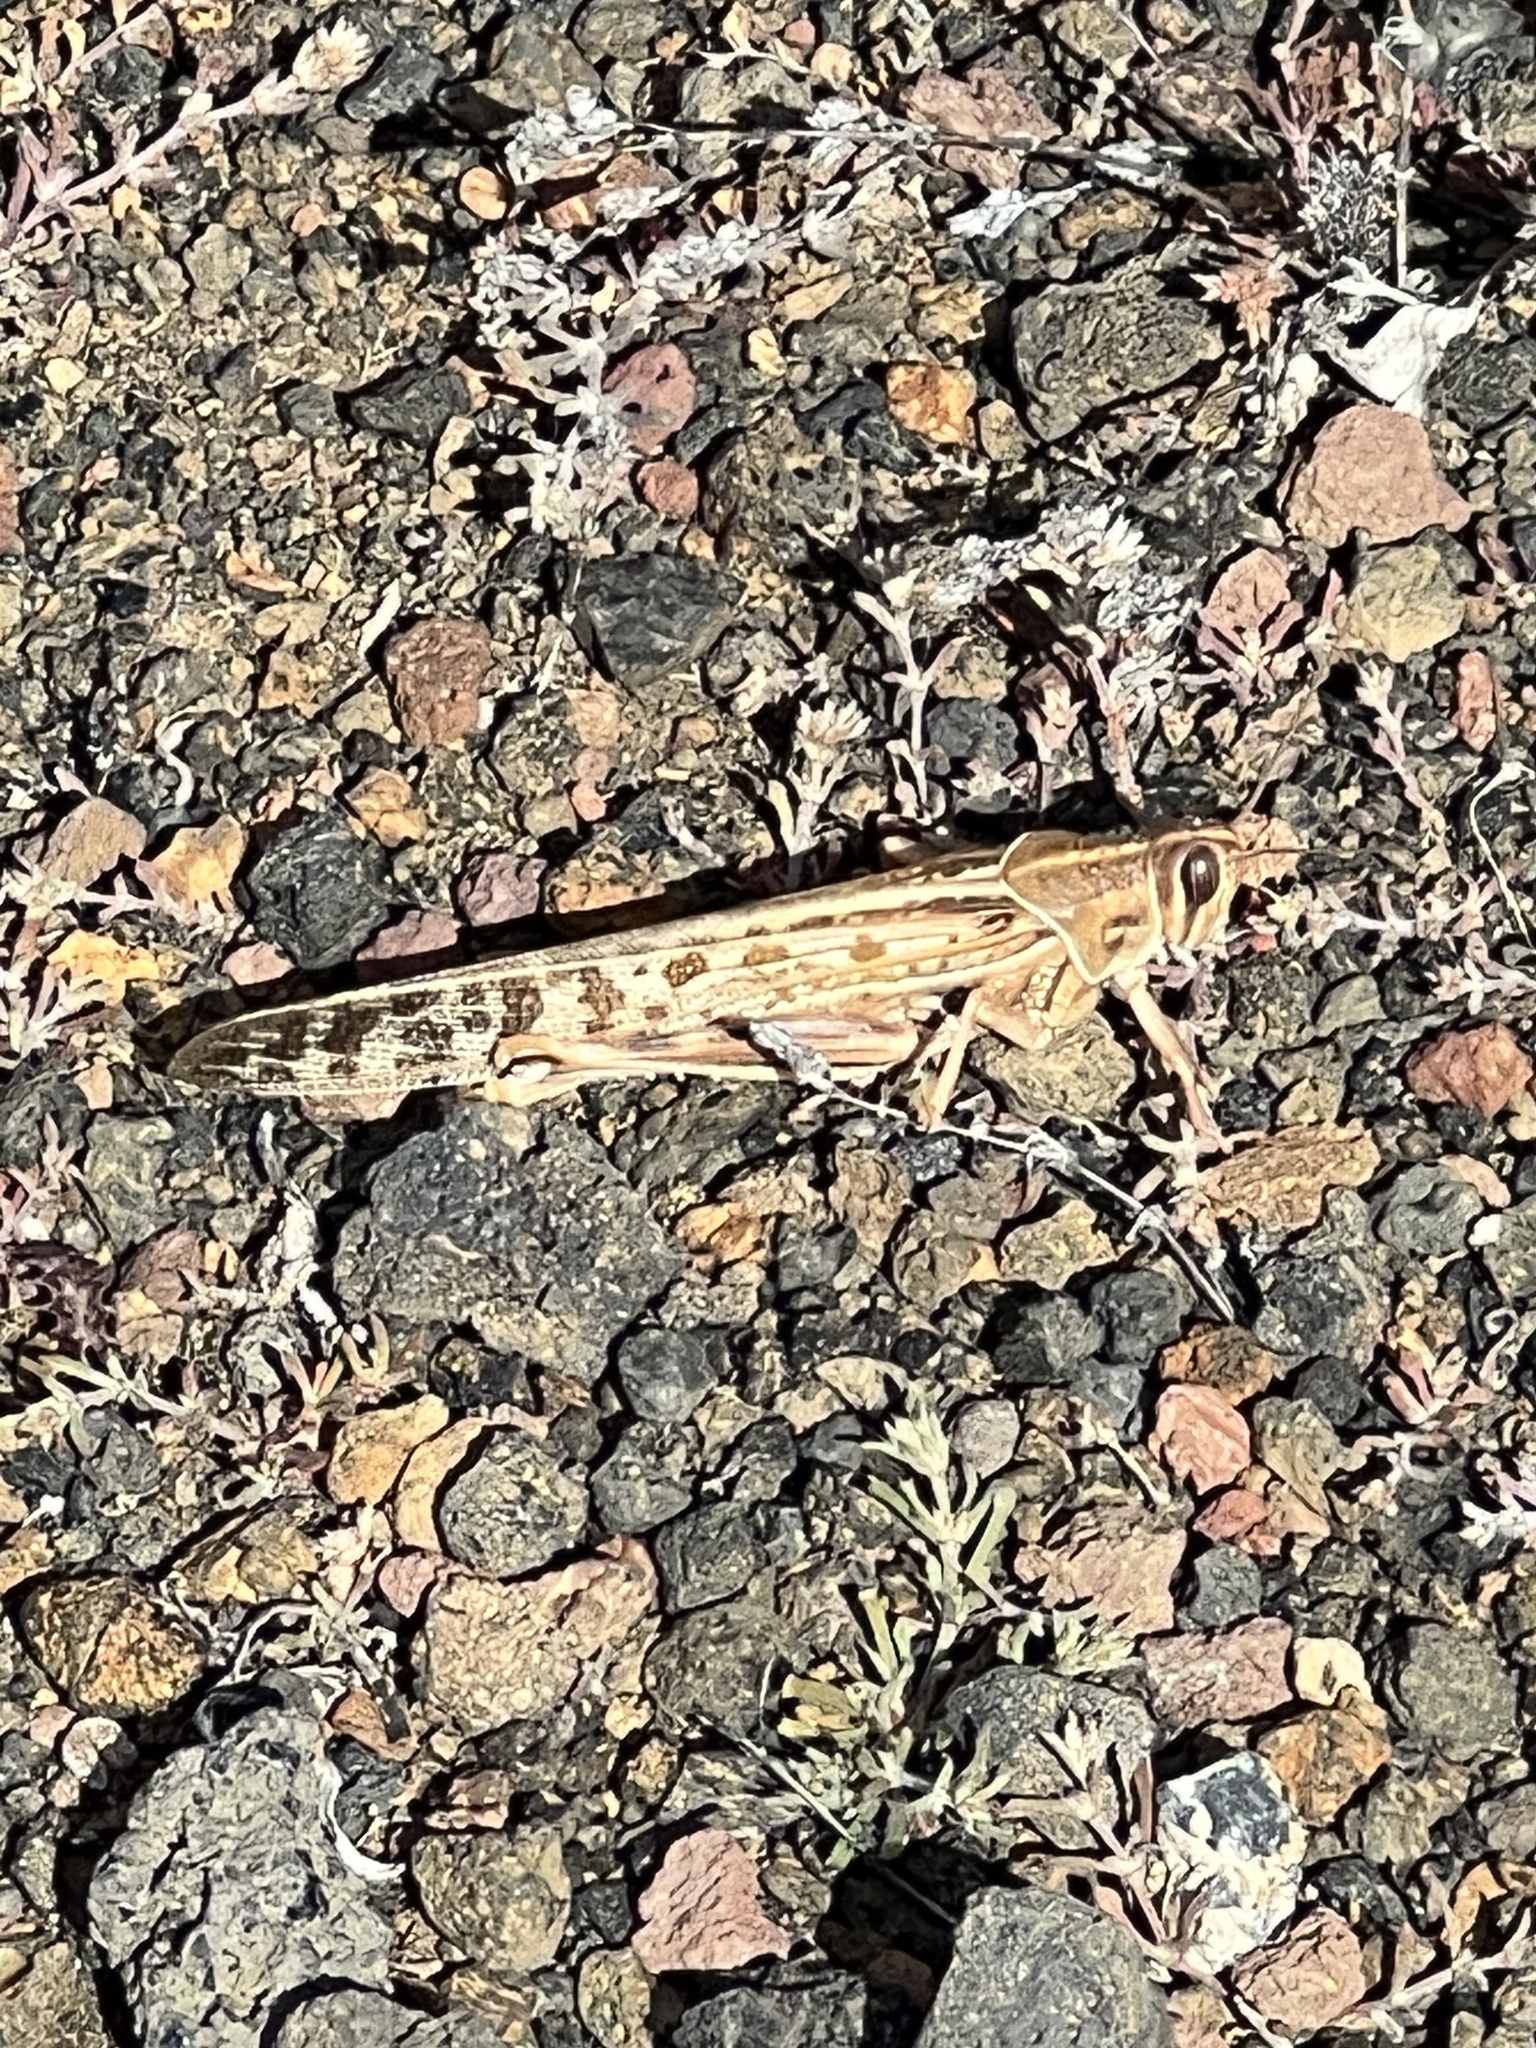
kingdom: Animalia
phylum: Arthropoda
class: Insecta
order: Orthoptera
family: Acrididae
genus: Schistocerca
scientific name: Schistocerca gregaria
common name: Desert locust
